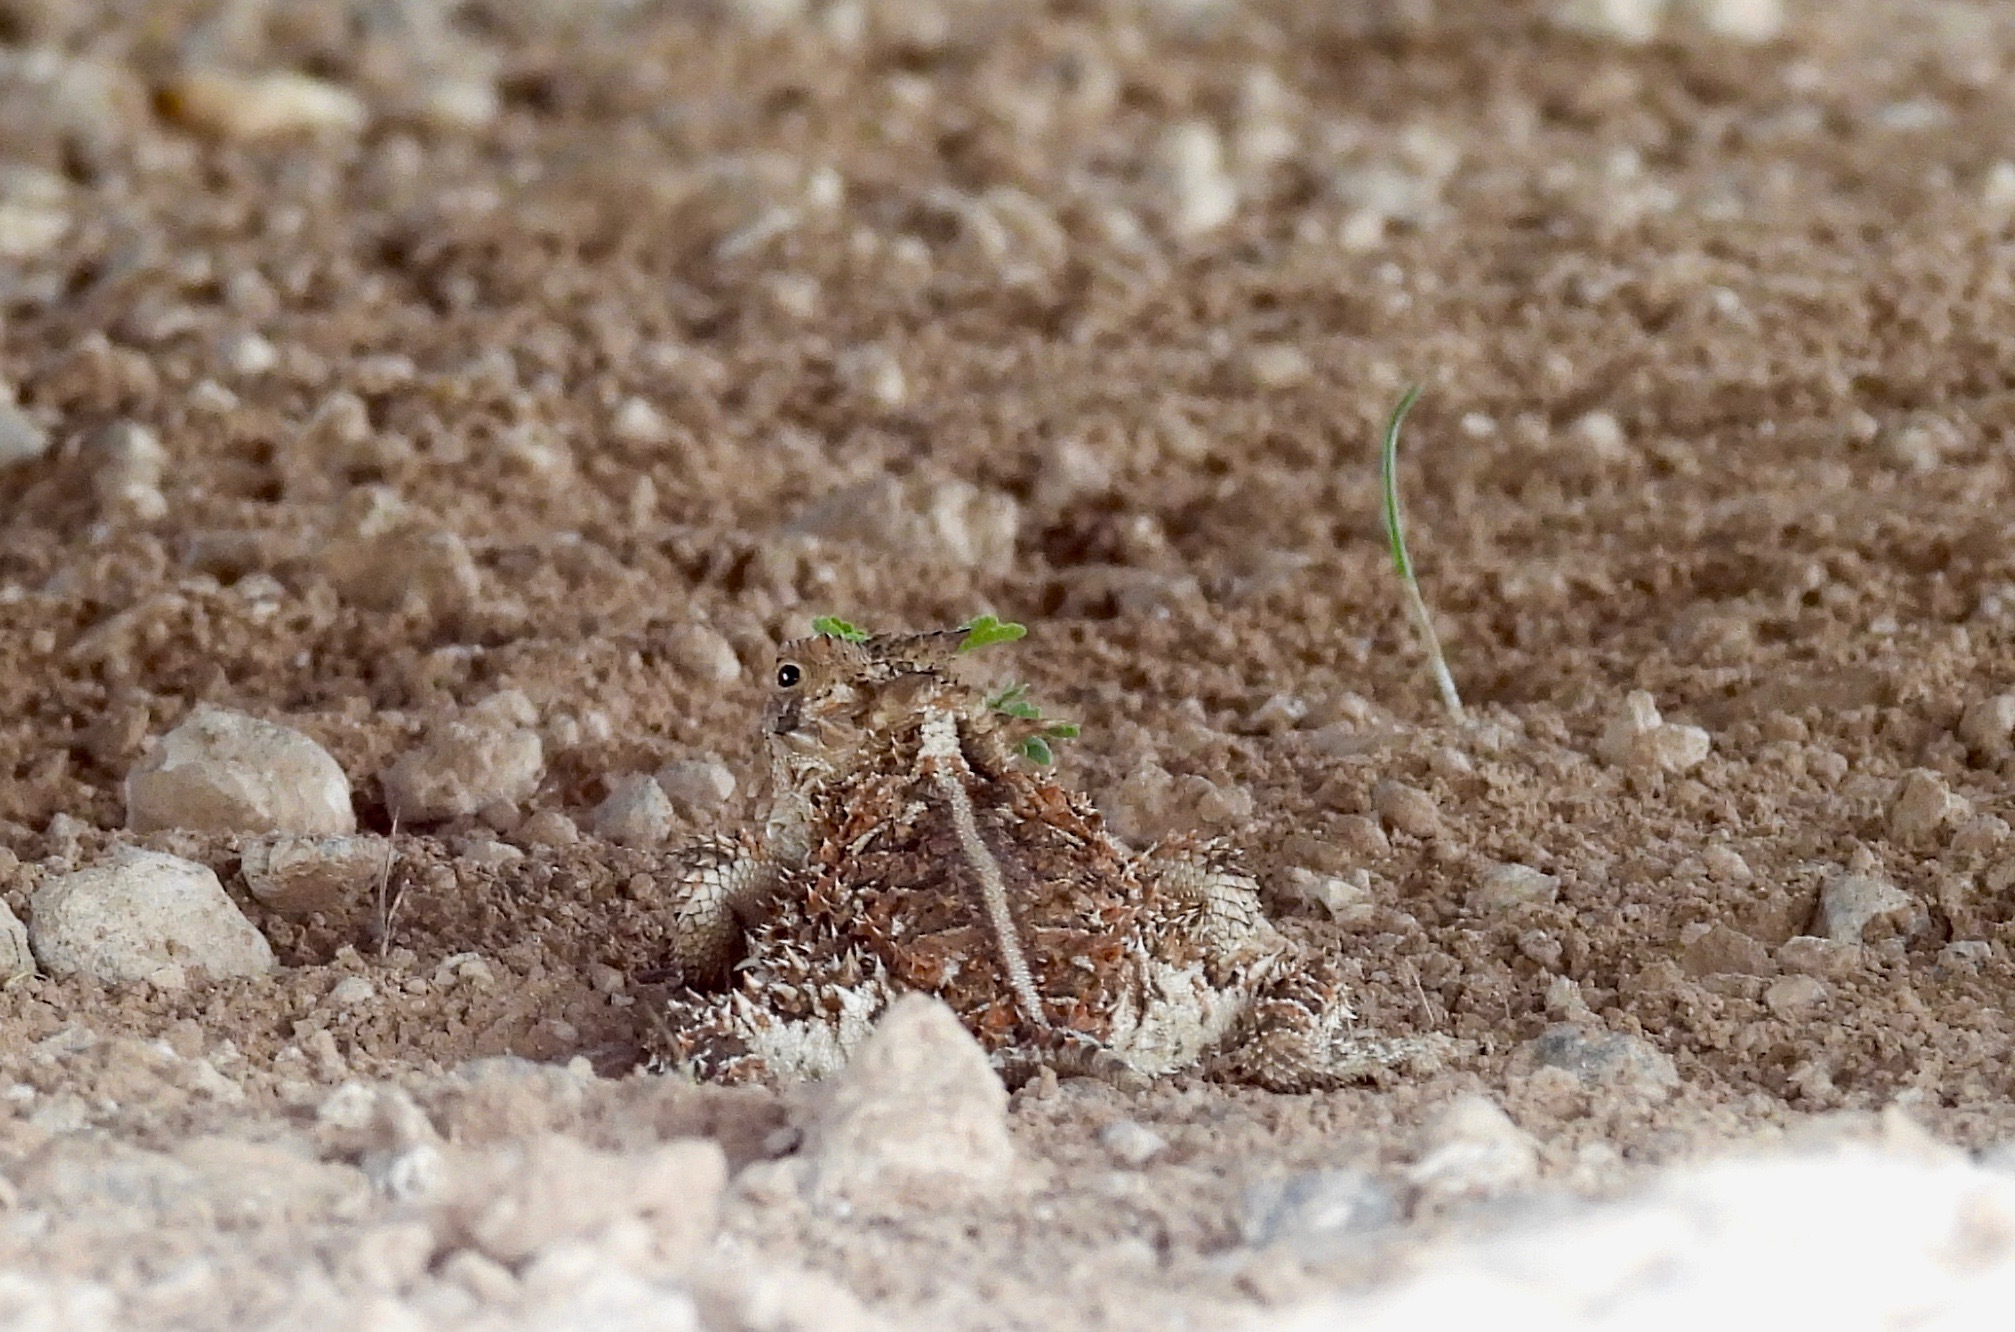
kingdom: Animalia
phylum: Chordata
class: Squamata
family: Phrynosomatidae
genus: Phrynosoma
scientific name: Phrynosoma cornutum
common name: Texas horned lizard
